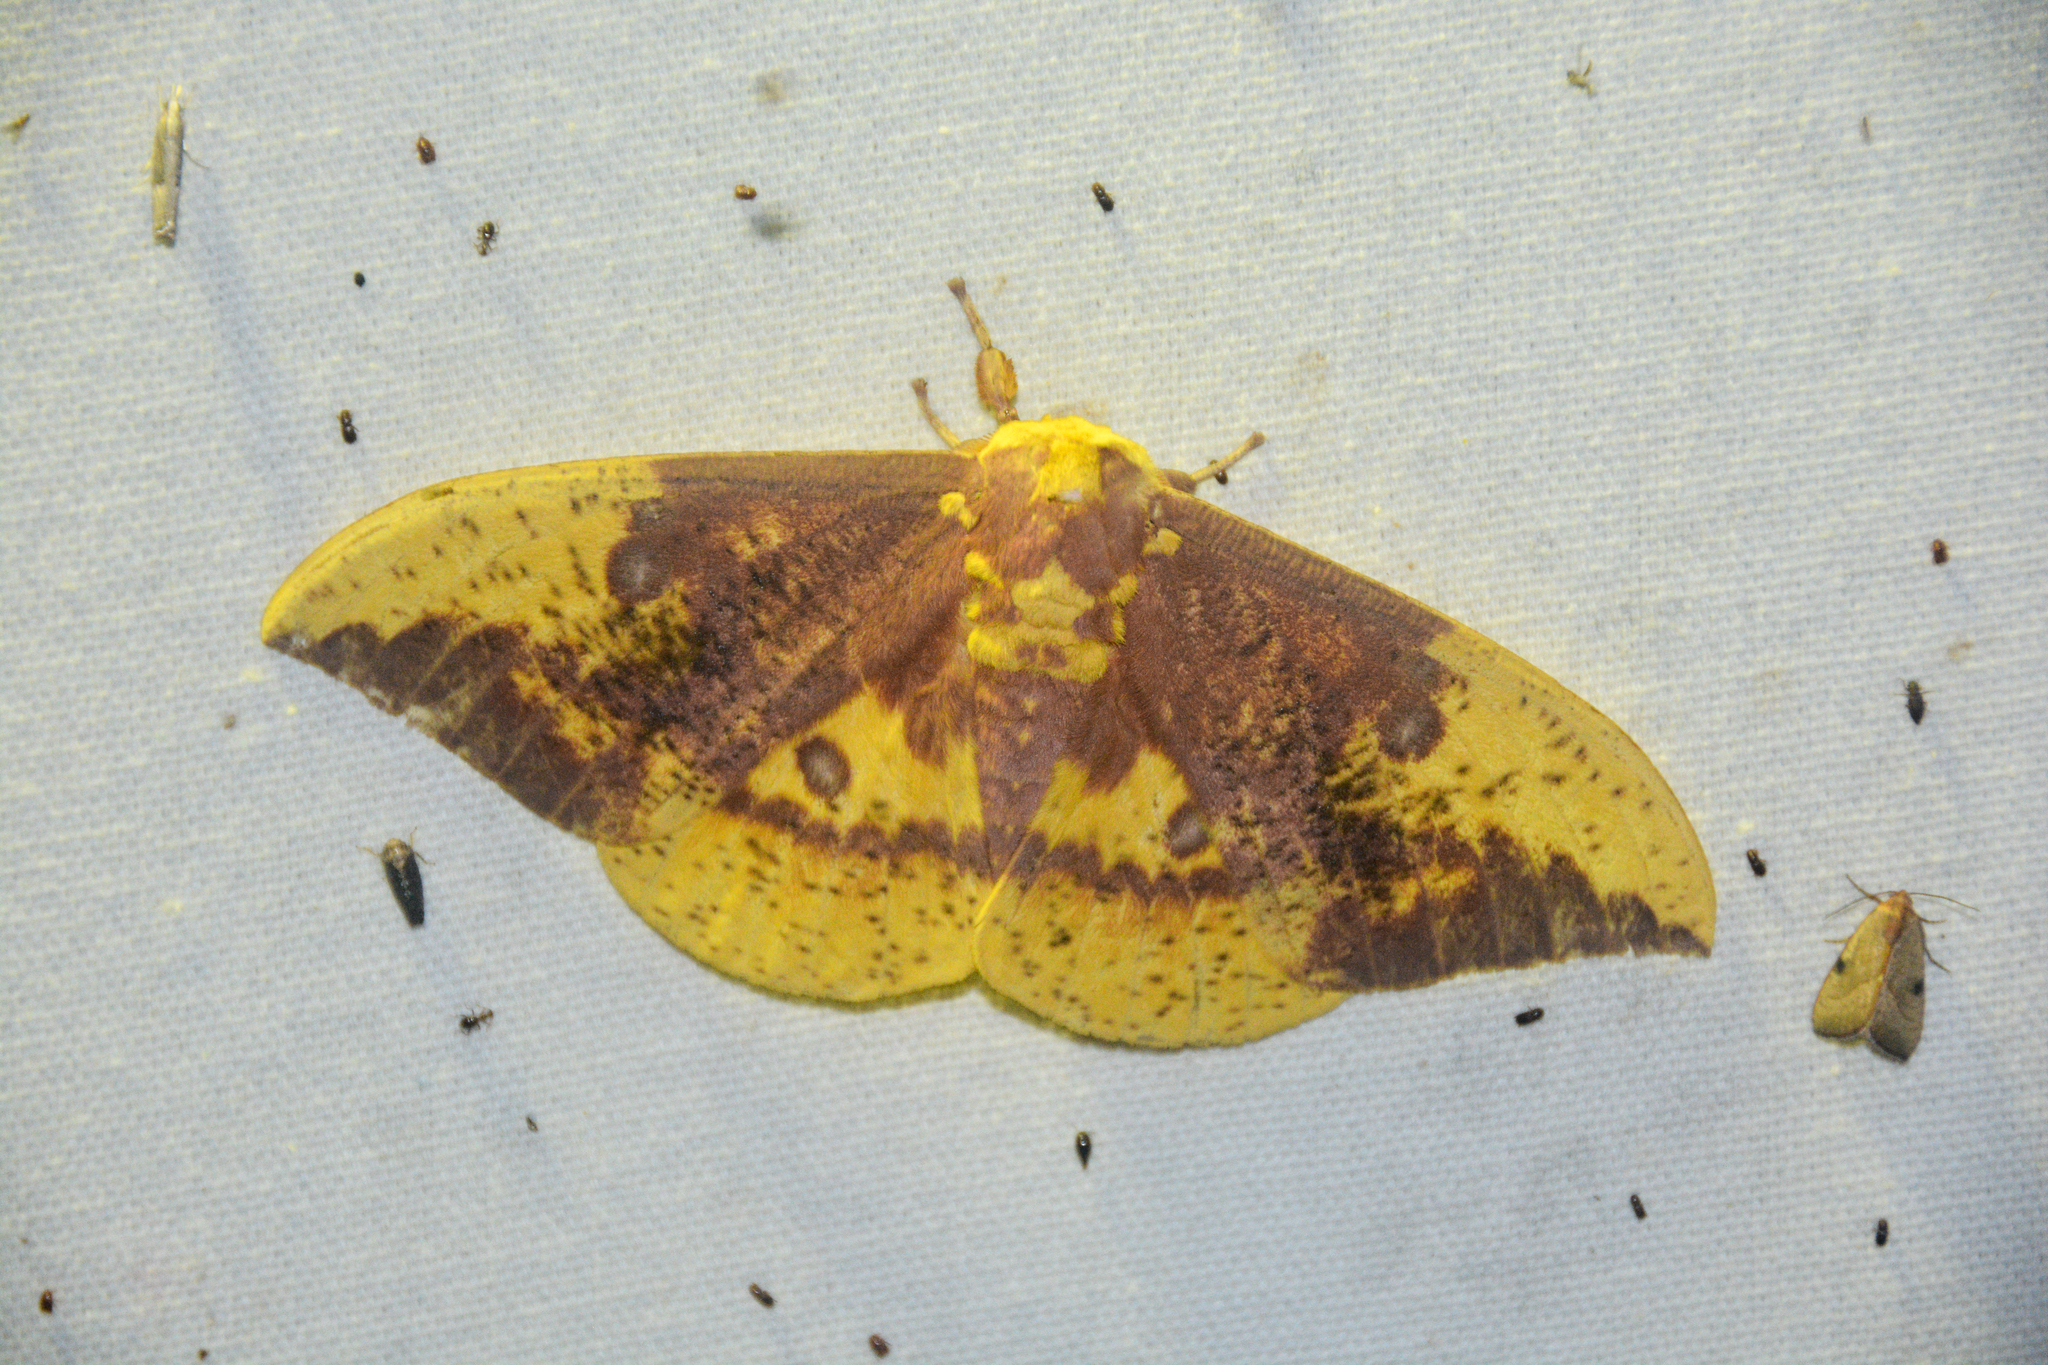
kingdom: Animalia
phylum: Arthropoda
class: Insecta
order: Lepidoptera
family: Saturniidae
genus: Eacles
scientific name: Eacles imperialis
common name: Imperial moth
